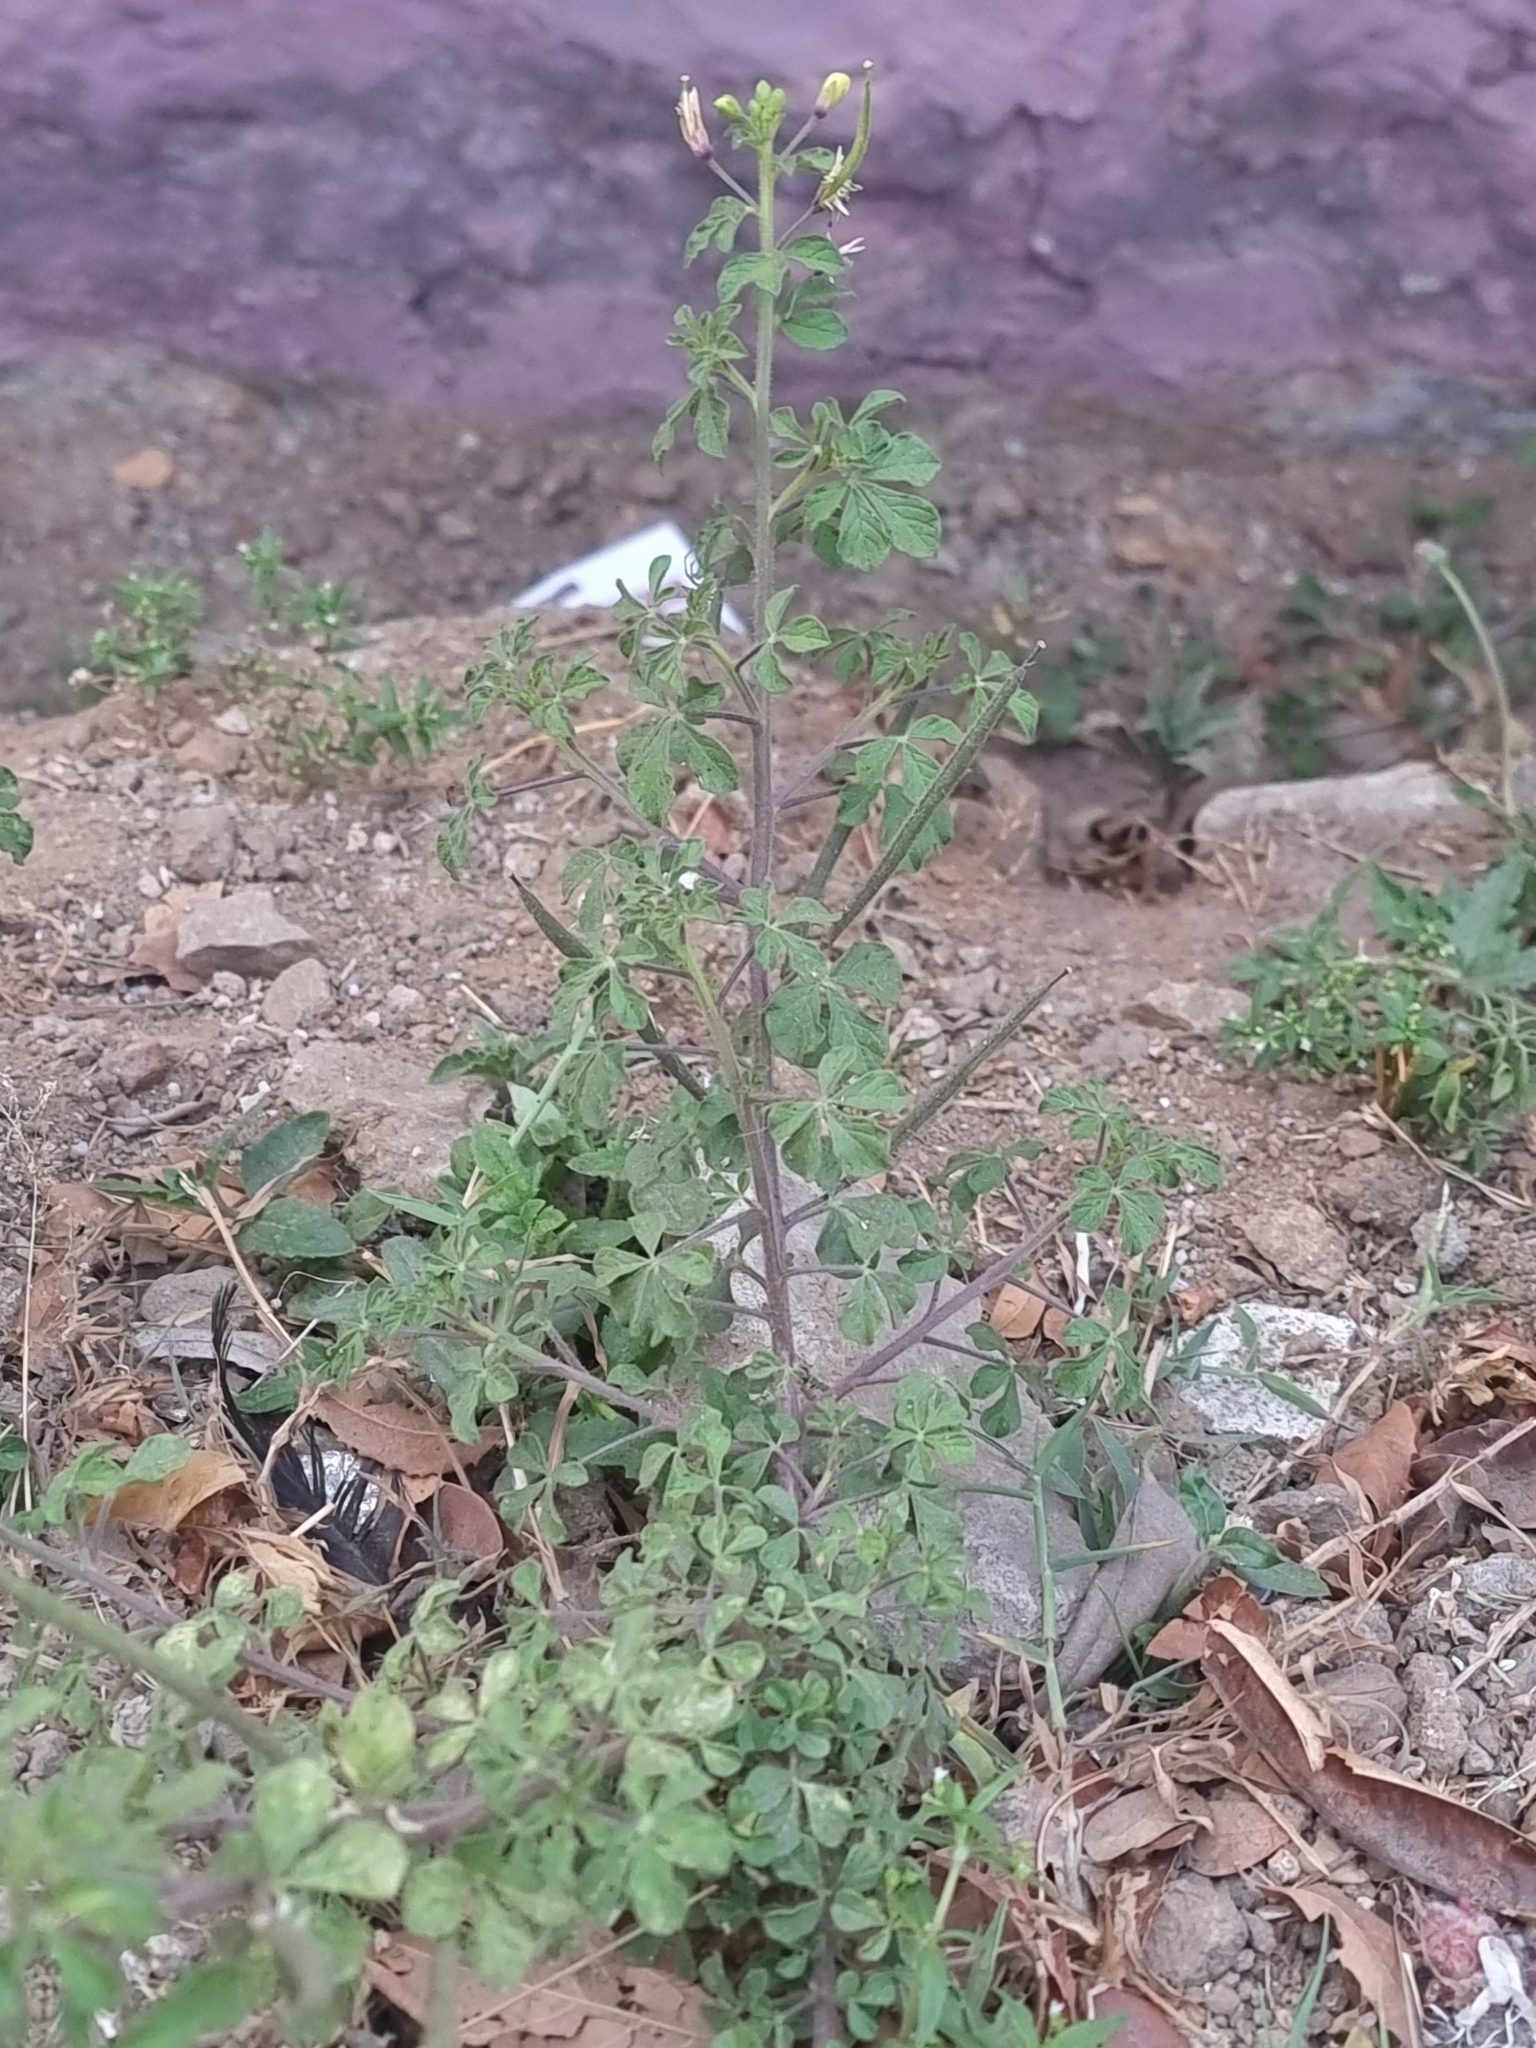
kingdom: Plantae
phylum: Tracheophyta
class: Magnoliopsida
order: Brassicales
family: Cleomaceae
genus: Arivela
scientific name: Arivela viscosa
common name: Asian spiderflower
